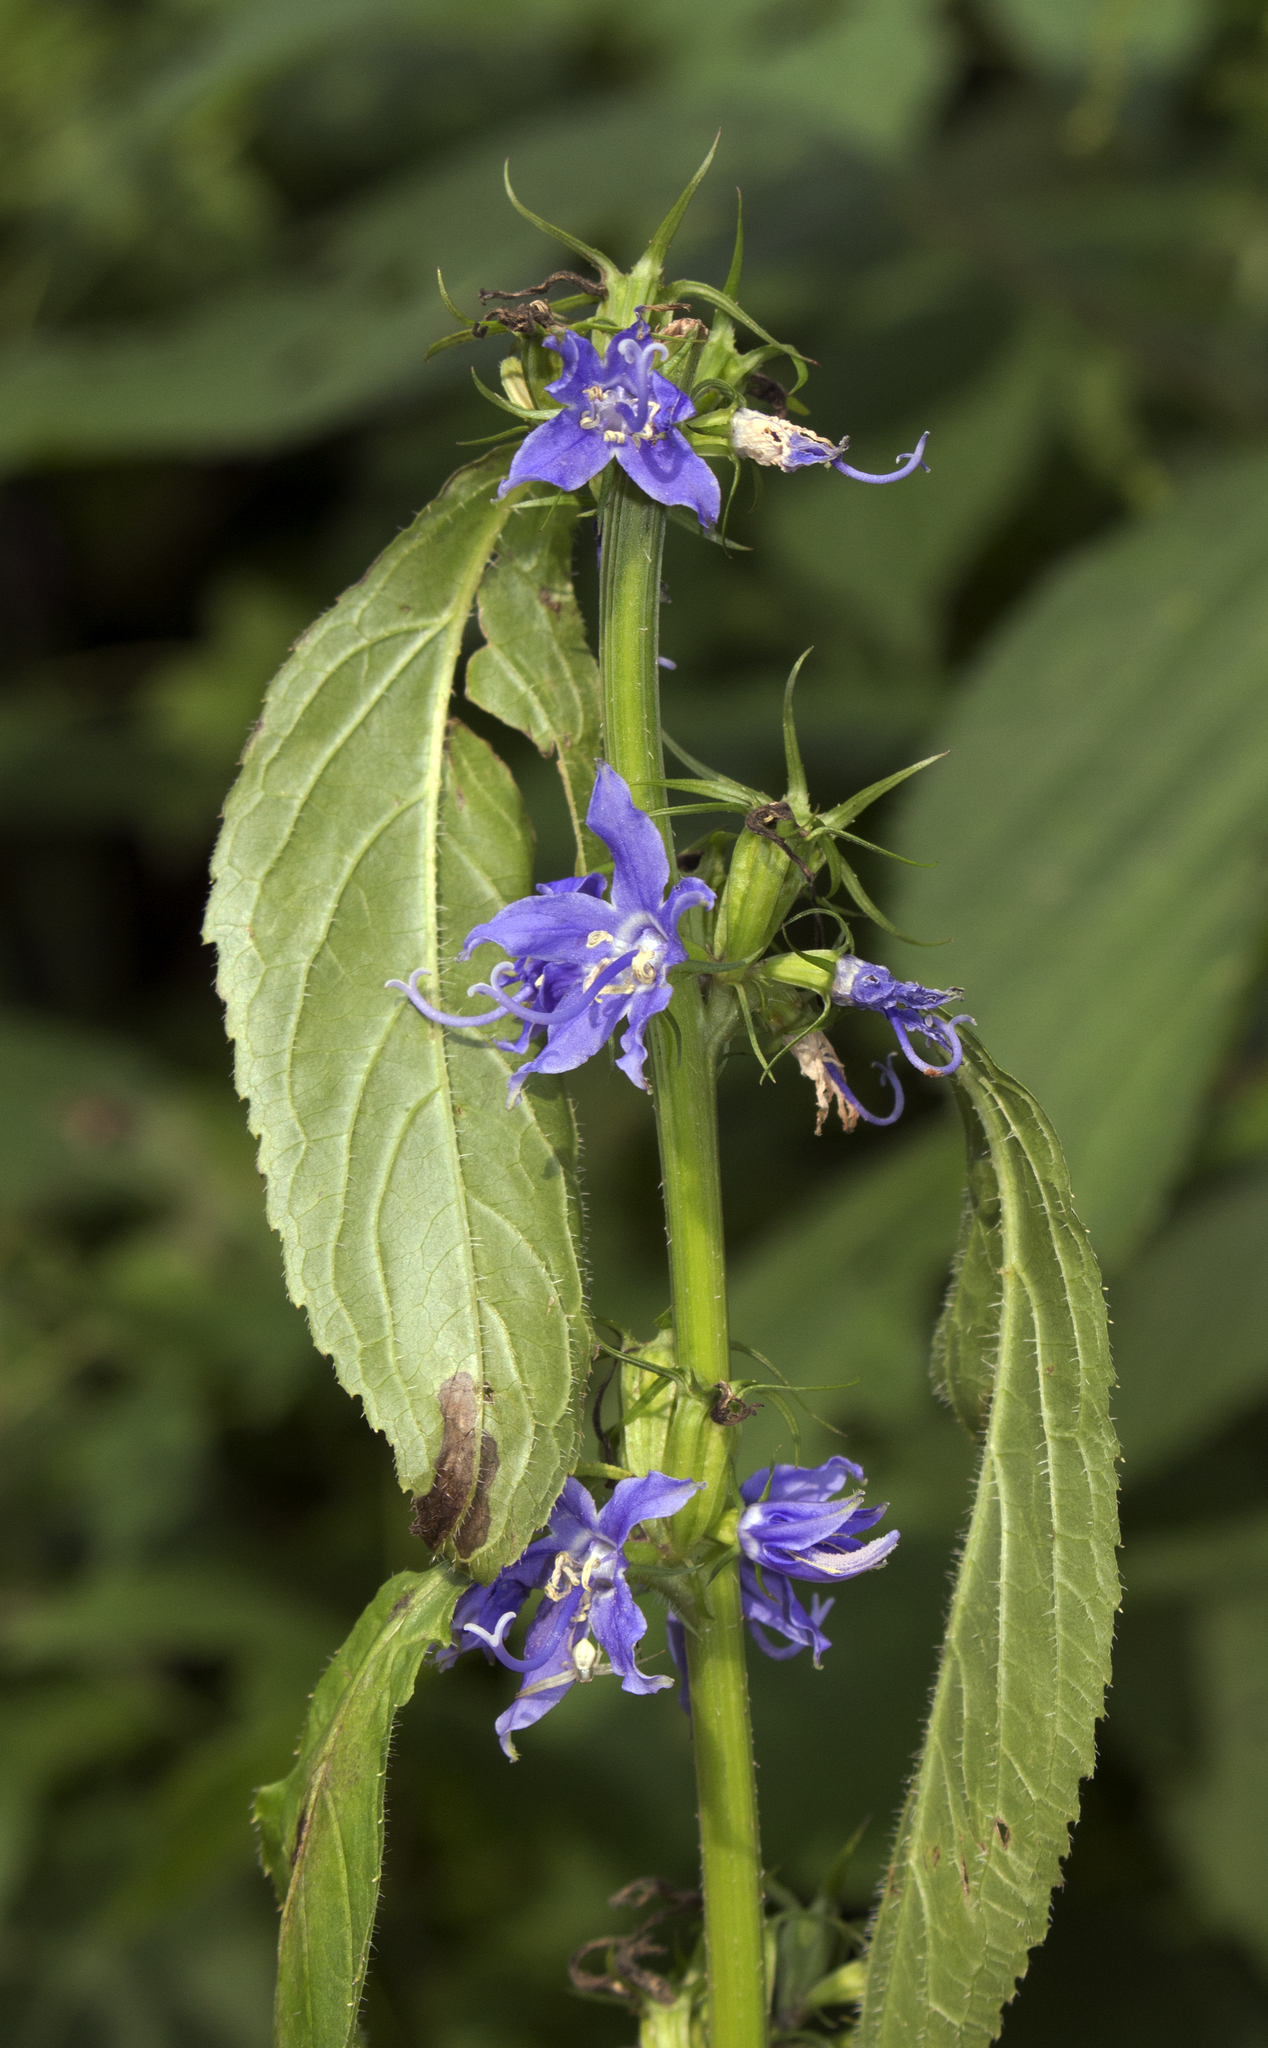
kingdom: Plantae
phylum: Tracheophyta
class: Magnoliopsida
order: Asterales
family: Campanulaceae
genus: Campanulastrum
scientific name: Campanulastrum americanum
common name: American bellflower
